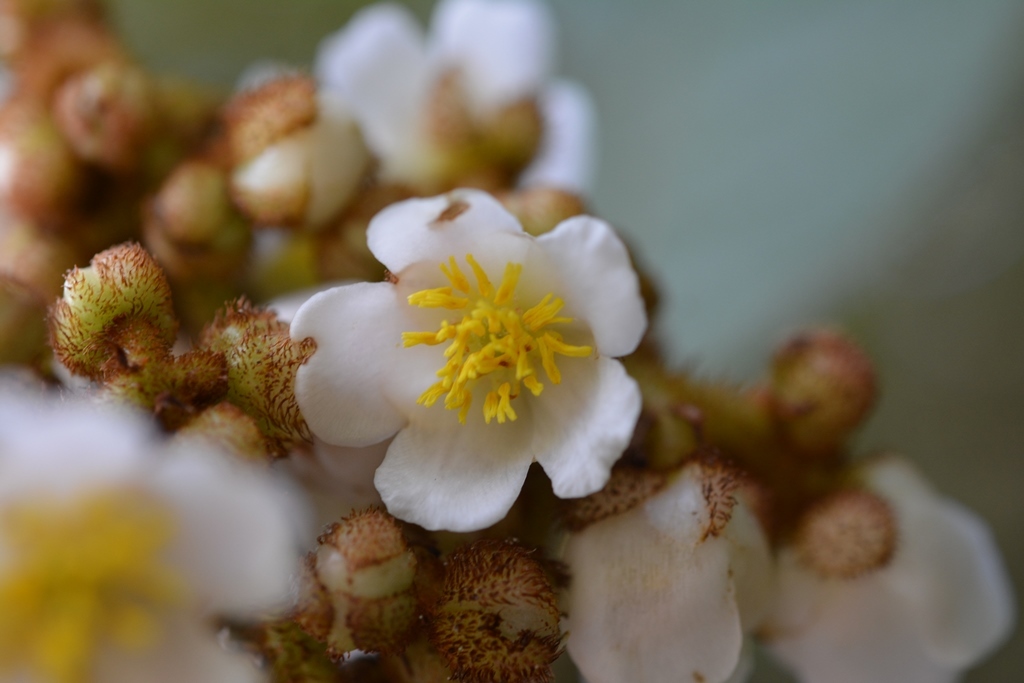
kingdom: Plantae
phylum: Tracheophyta
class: Magnoliopsida
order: Ericales
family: Actinidiaceae
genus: Saurauia
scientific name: Saurauia madrensis
